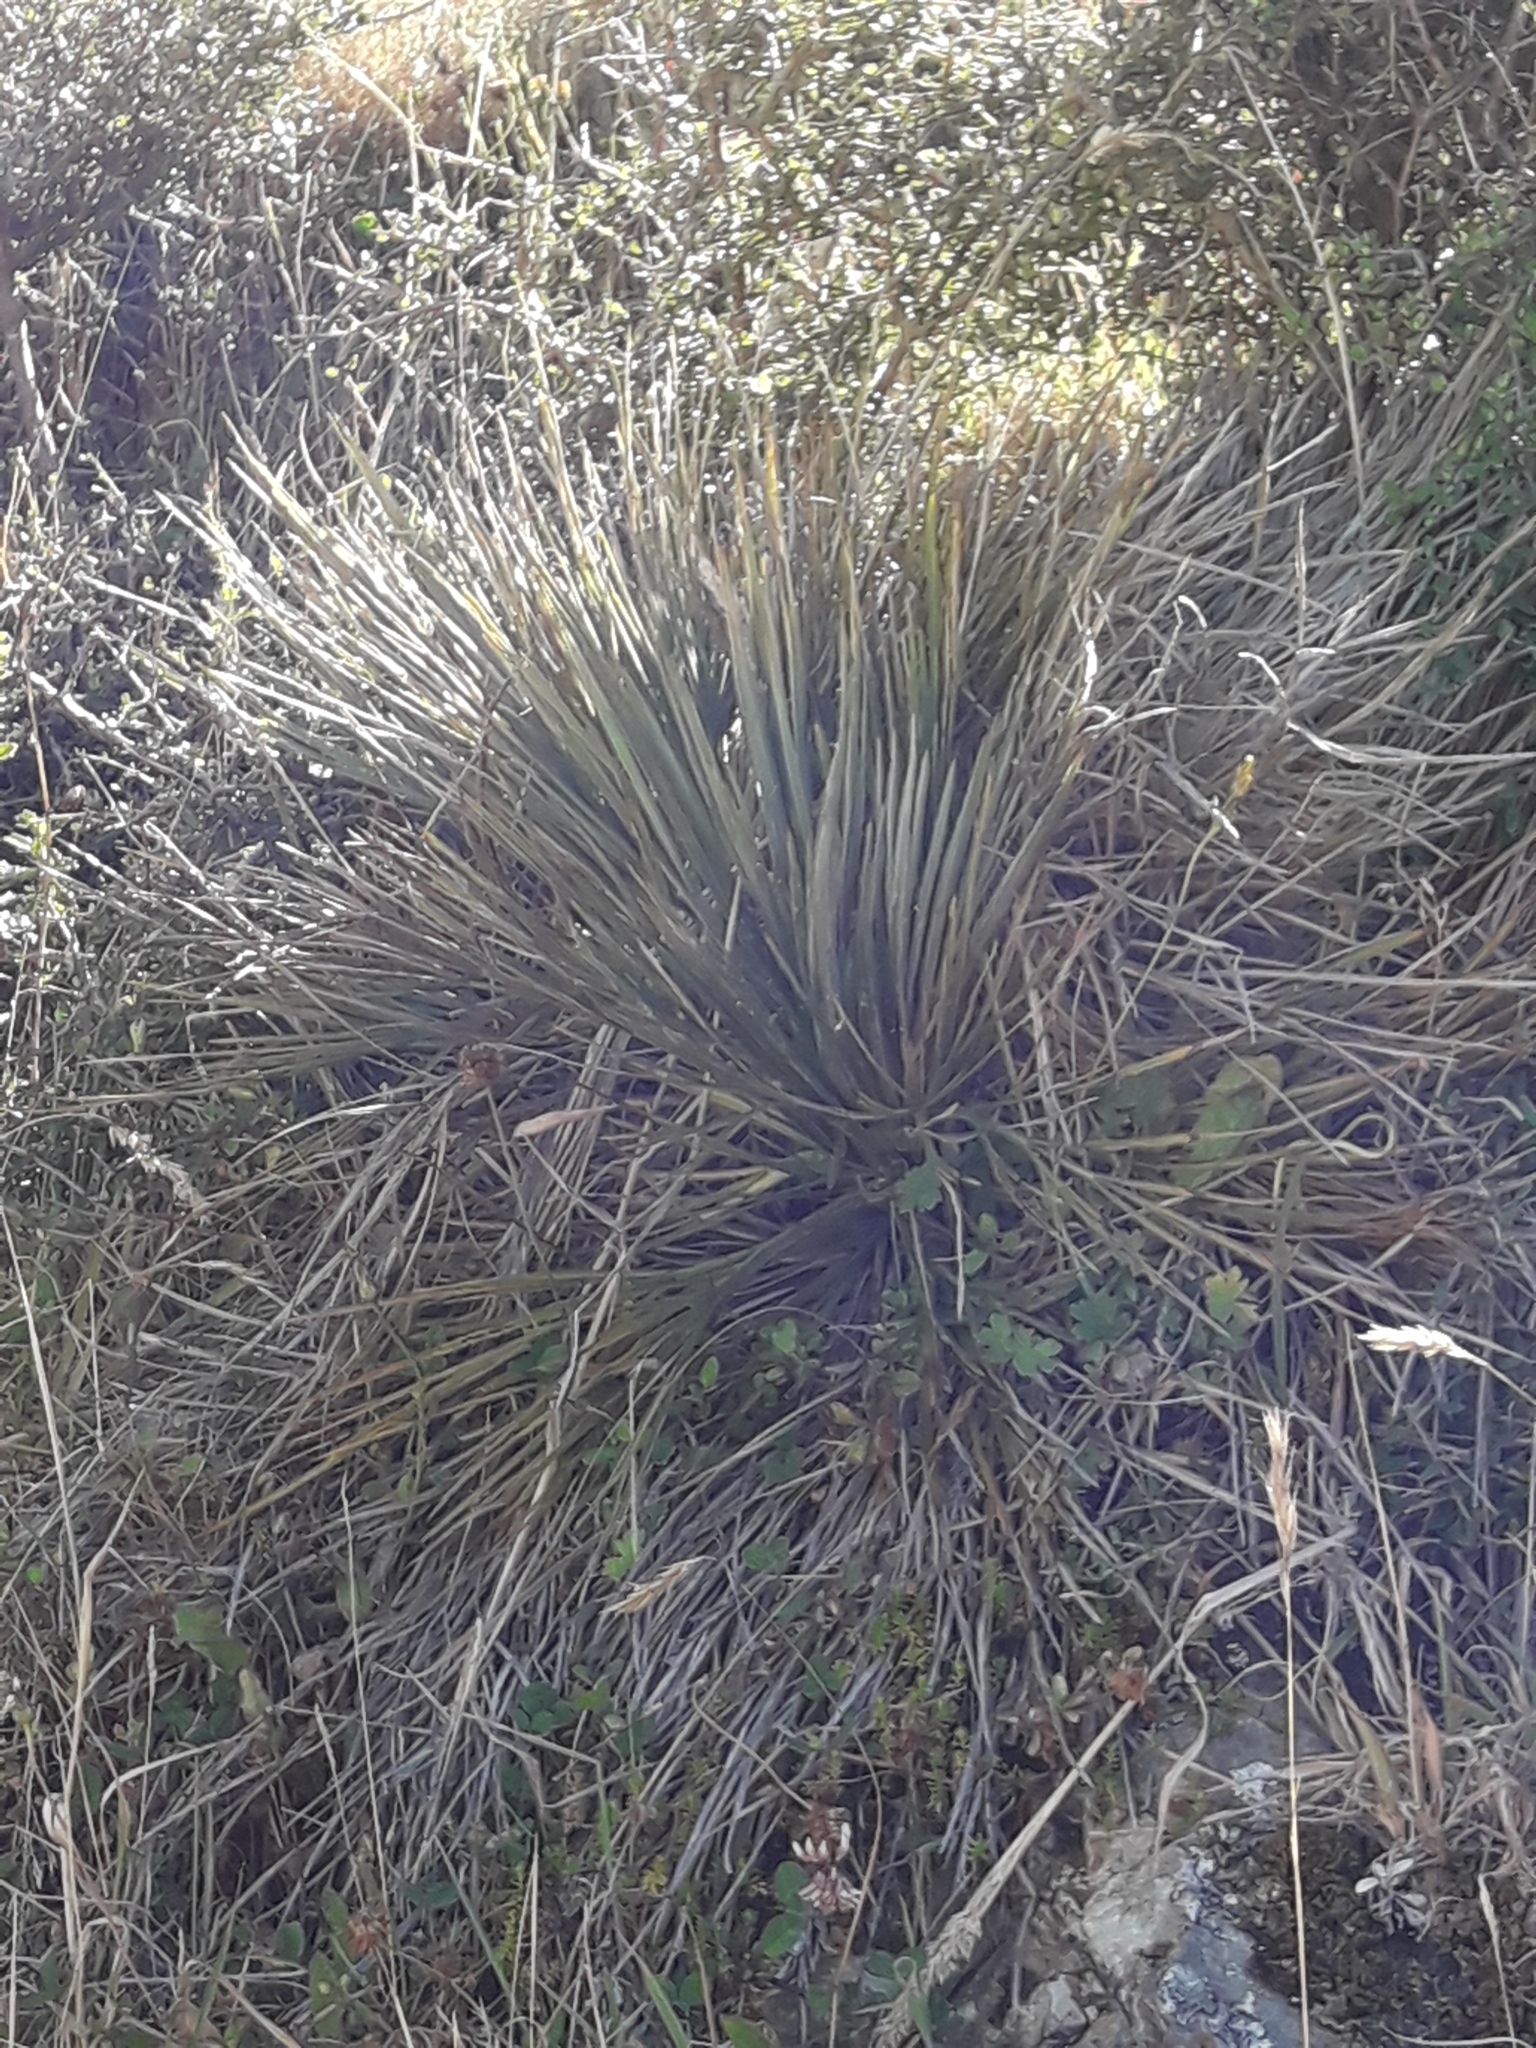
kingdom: Plantae
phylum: Tracheophyta
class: Magnoliopsida
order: Apiales
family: Apiaceae
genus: Aciphylla
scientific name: Aciphylla squarrosa
